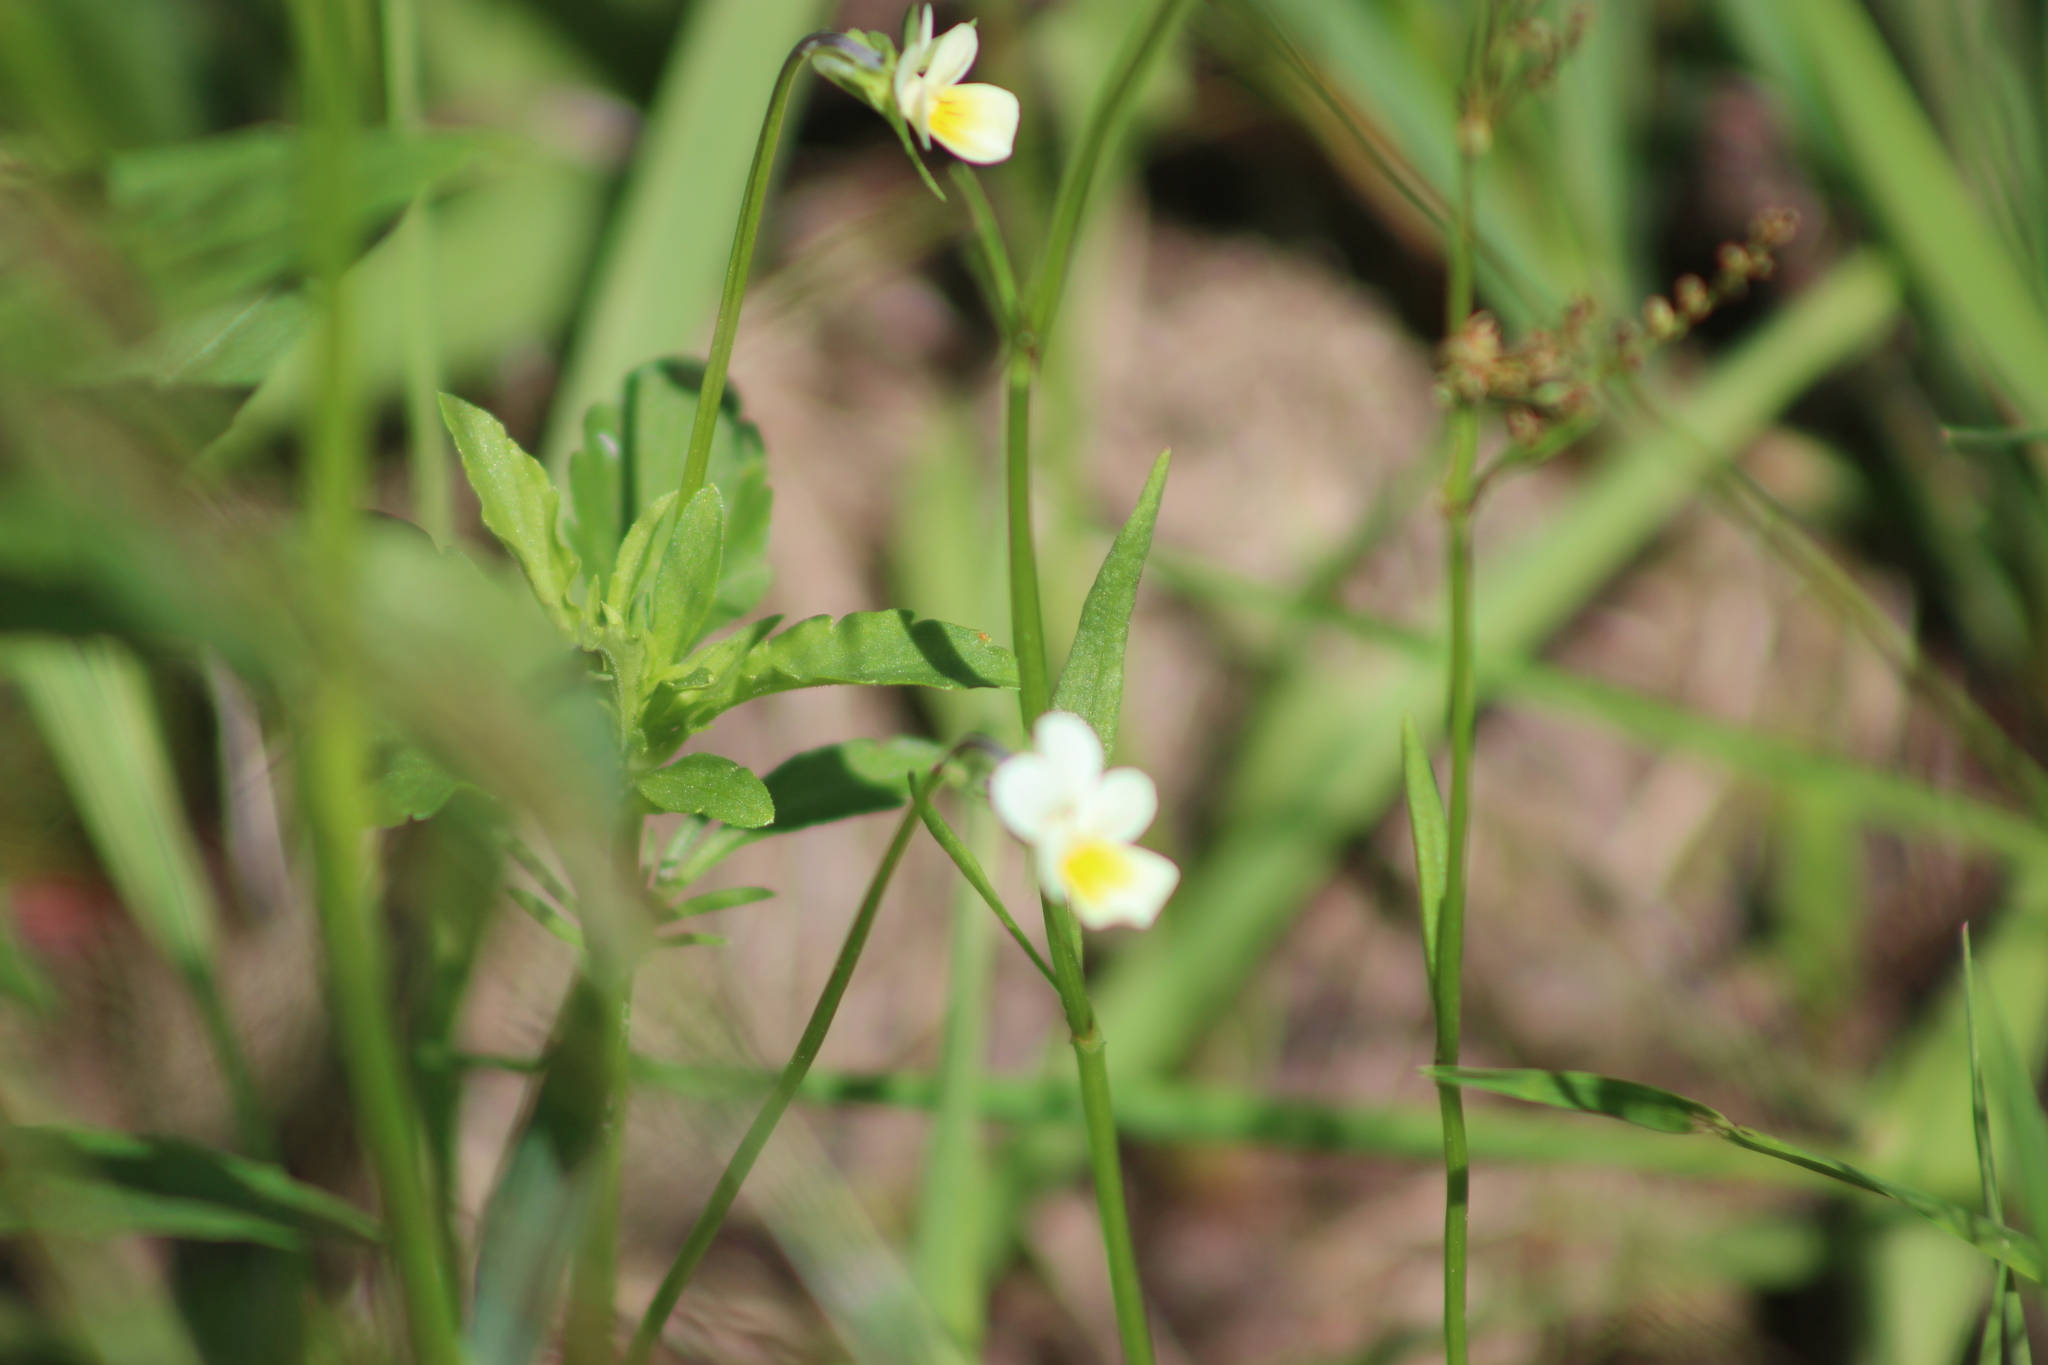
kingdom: Plantae
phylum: Tracheophyta
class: Magnoliopsida
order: Malpighiales
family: Violaceae
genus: Viola
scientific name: Viola arvensis
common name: Field pansy
